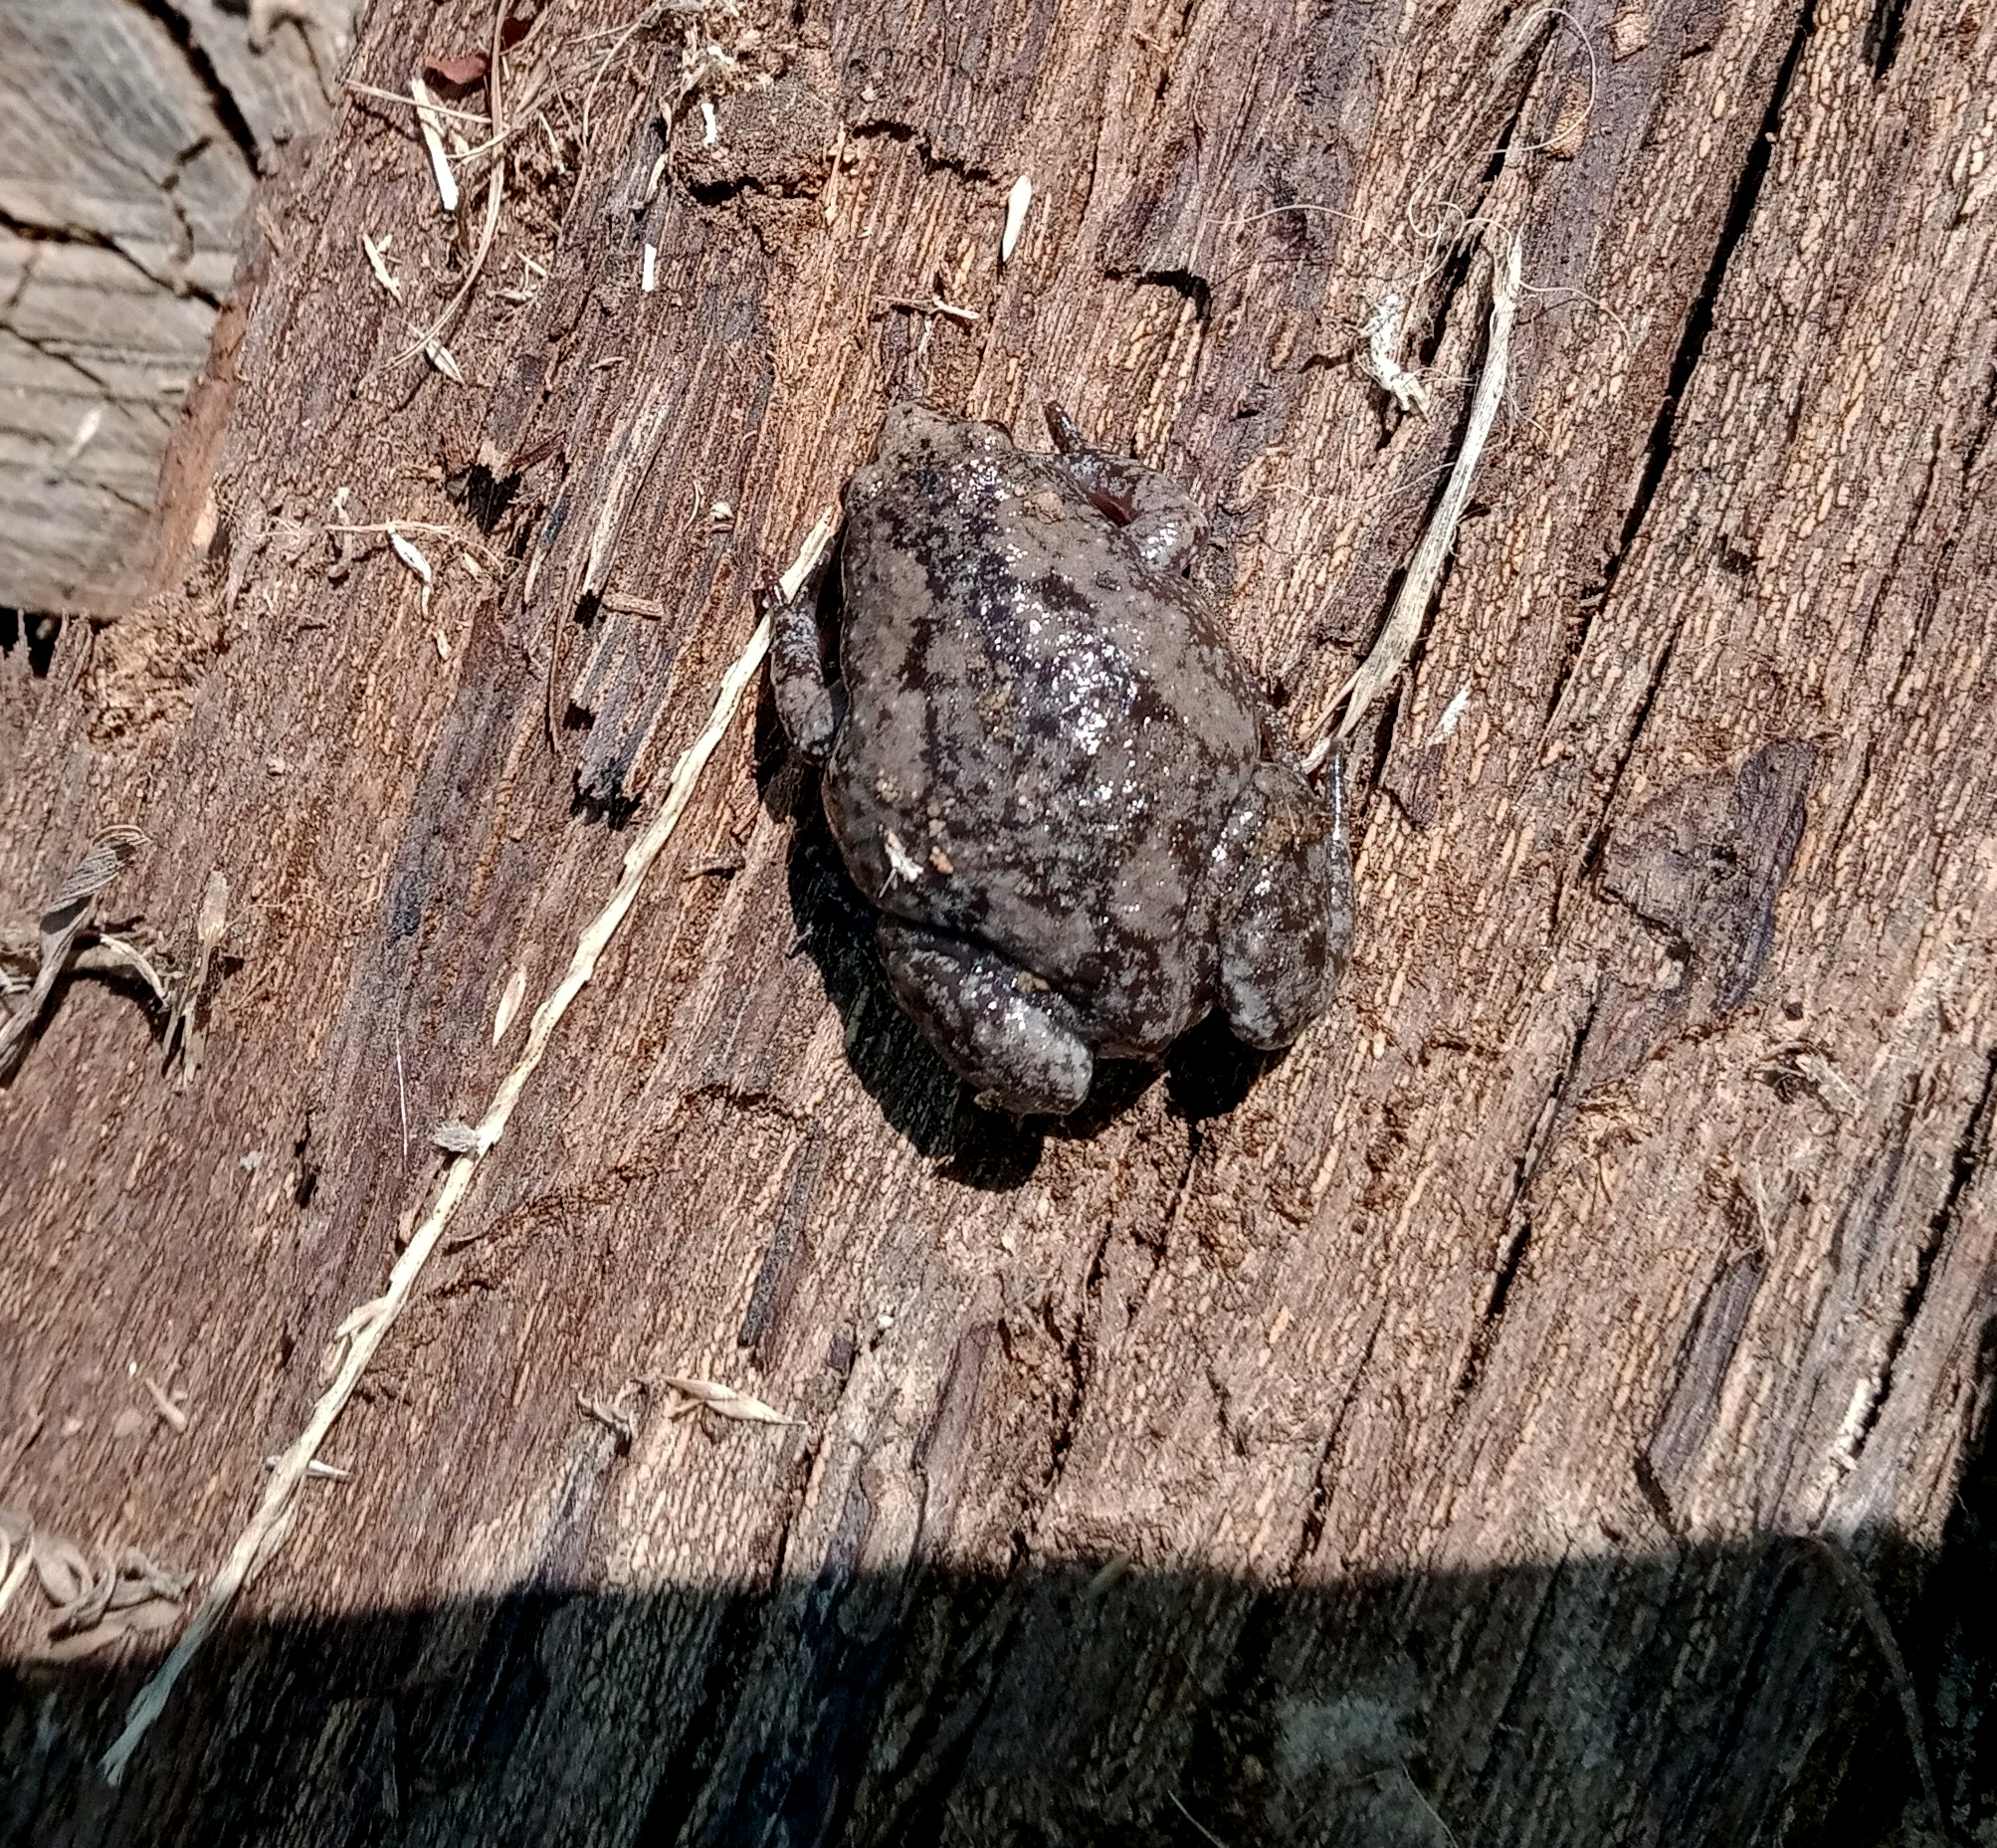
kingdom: Animalia
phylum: Chordata
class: Amphibia
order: Anura
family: Microhylidae
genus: Gastrophryne
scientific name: Gastrophryne carolinensis
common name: Eastern narrowmouth toad
